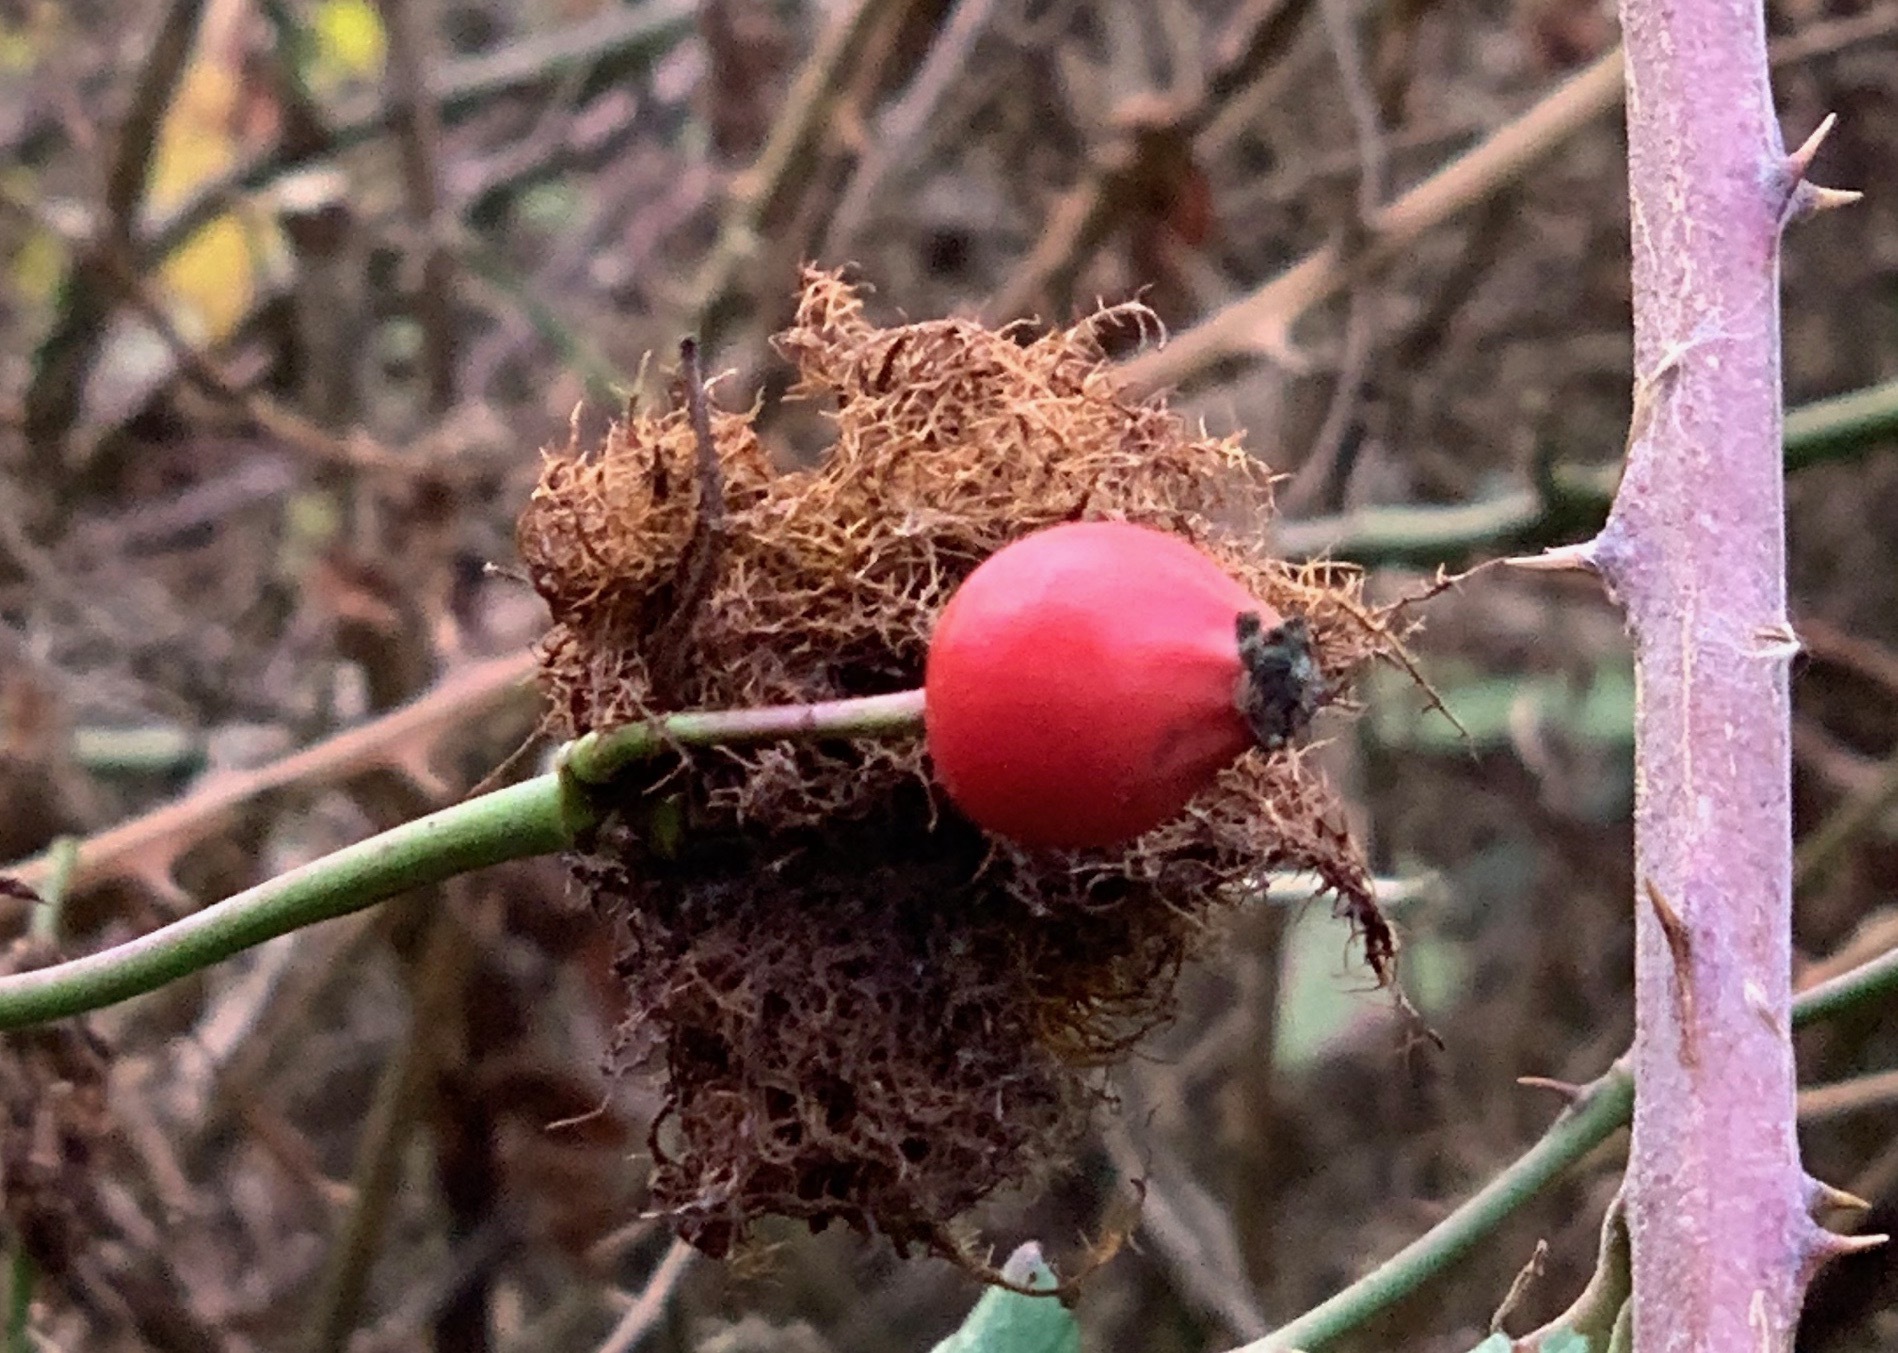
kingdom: Animalia
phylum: Arthropoda
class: Insecta
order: Hymenoptera
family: Cynipidae
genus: Diplolepis
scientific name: Diplolepis rosae
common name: Bedeguar gall
